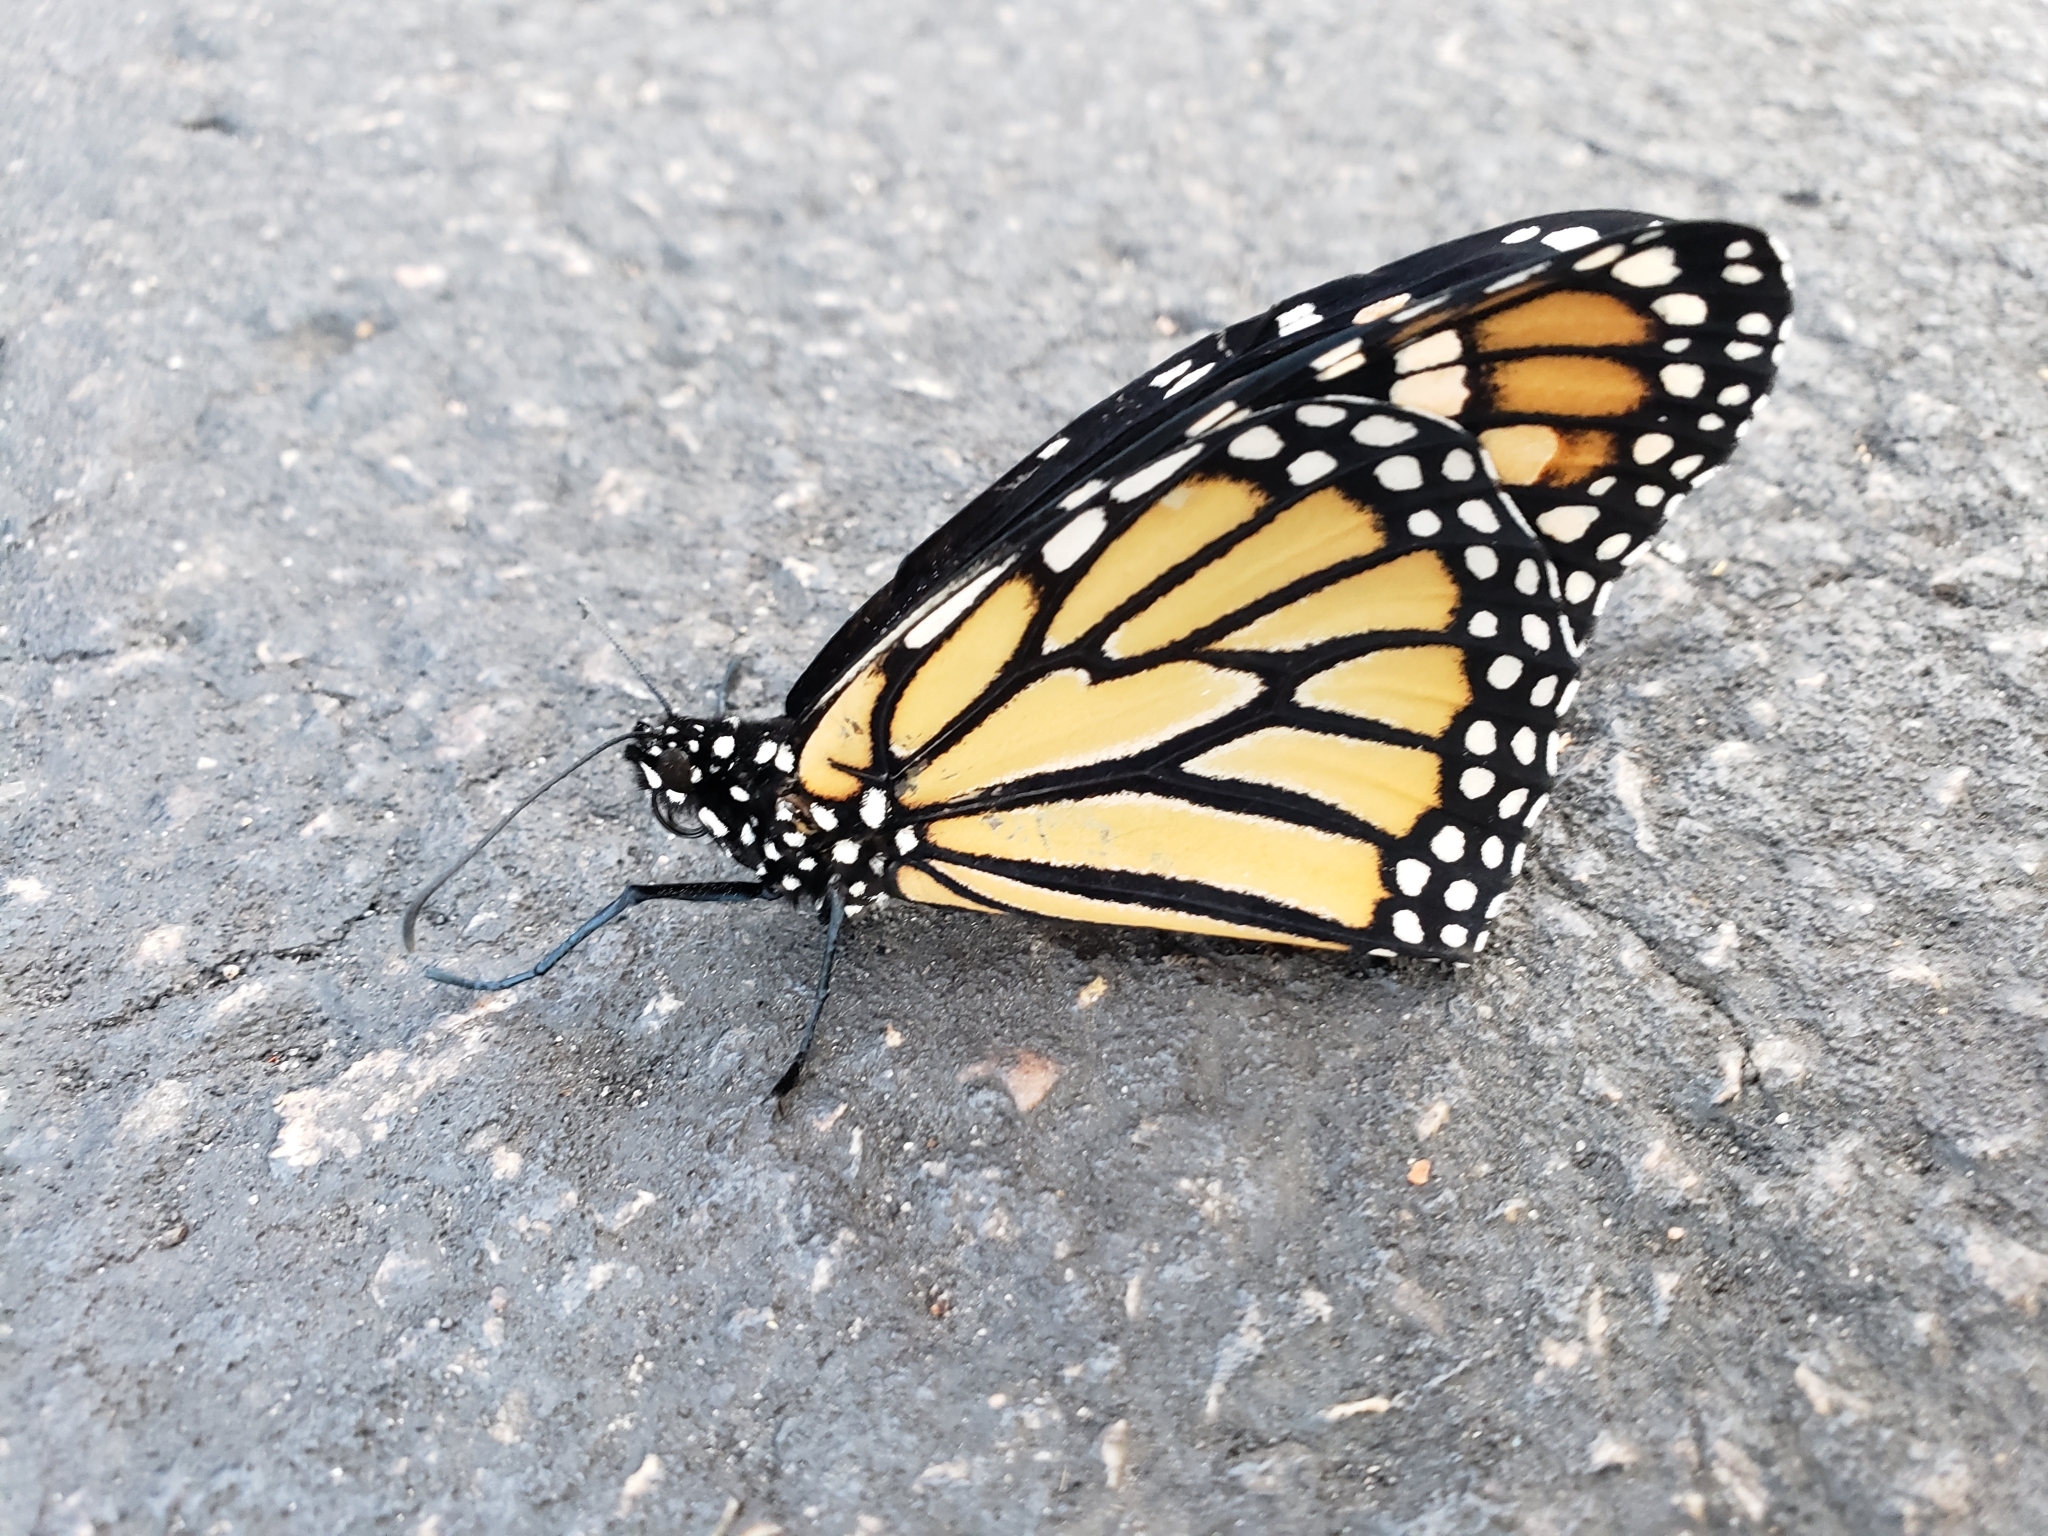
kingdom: Animalia
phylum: Arthropoda
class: Insecta
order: Lepidoptera
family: Nymphalidae
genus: Danaus
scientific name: Danaus plexippus
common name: Monarch
